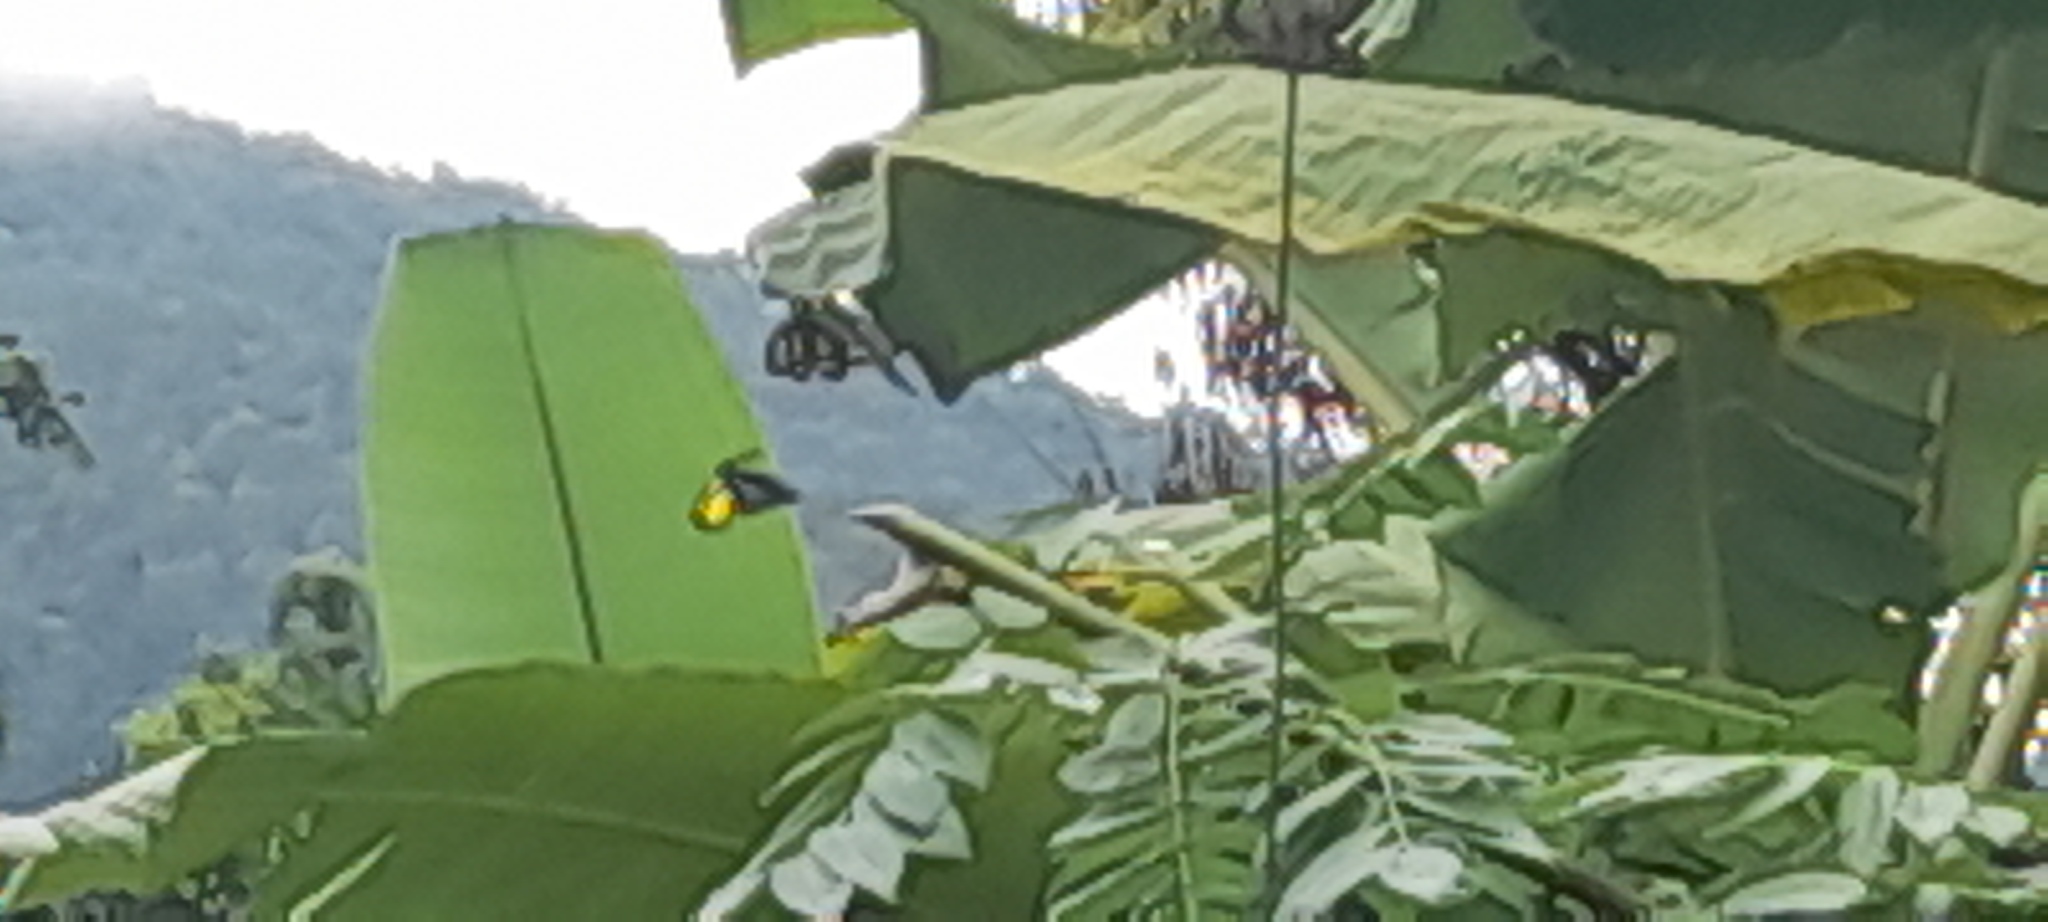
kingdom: Animalia
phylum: Arthropoda
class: Insecta
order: Lepidoptera
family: Papilionidae
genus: Troides
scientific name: Troides minos
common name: Malabar birdwing
